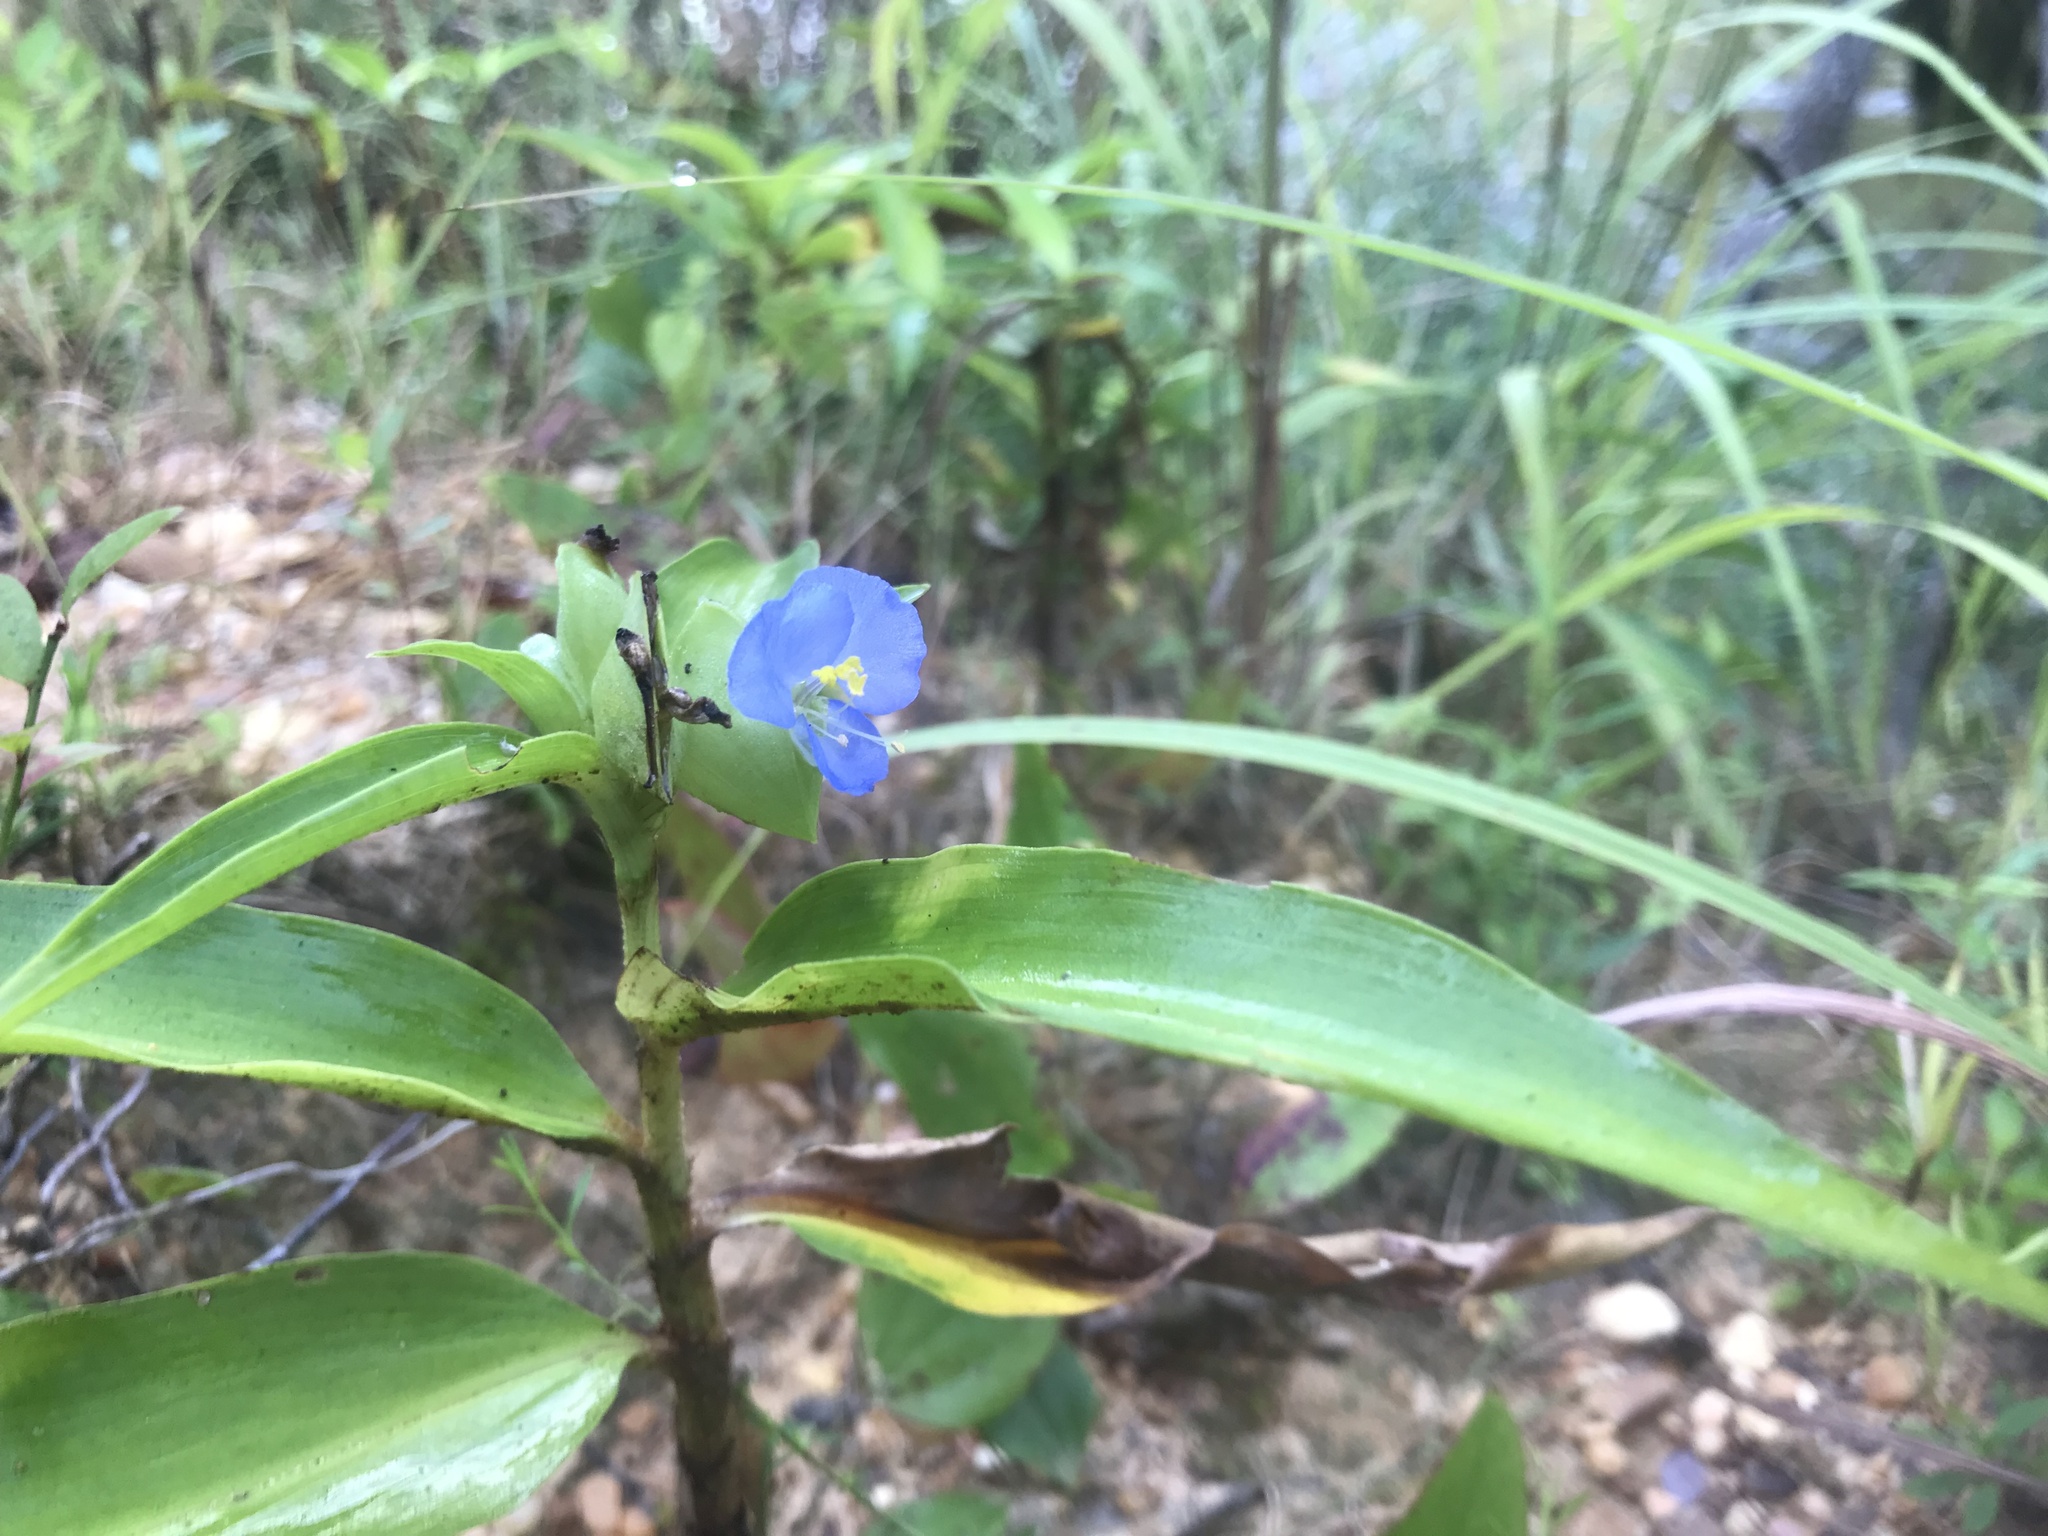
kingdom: Plantae
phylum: Tracheophyta
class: Liliopsida
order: Commelinales
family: Commelinaceae
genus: Commelina
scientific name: Commelina virginica
